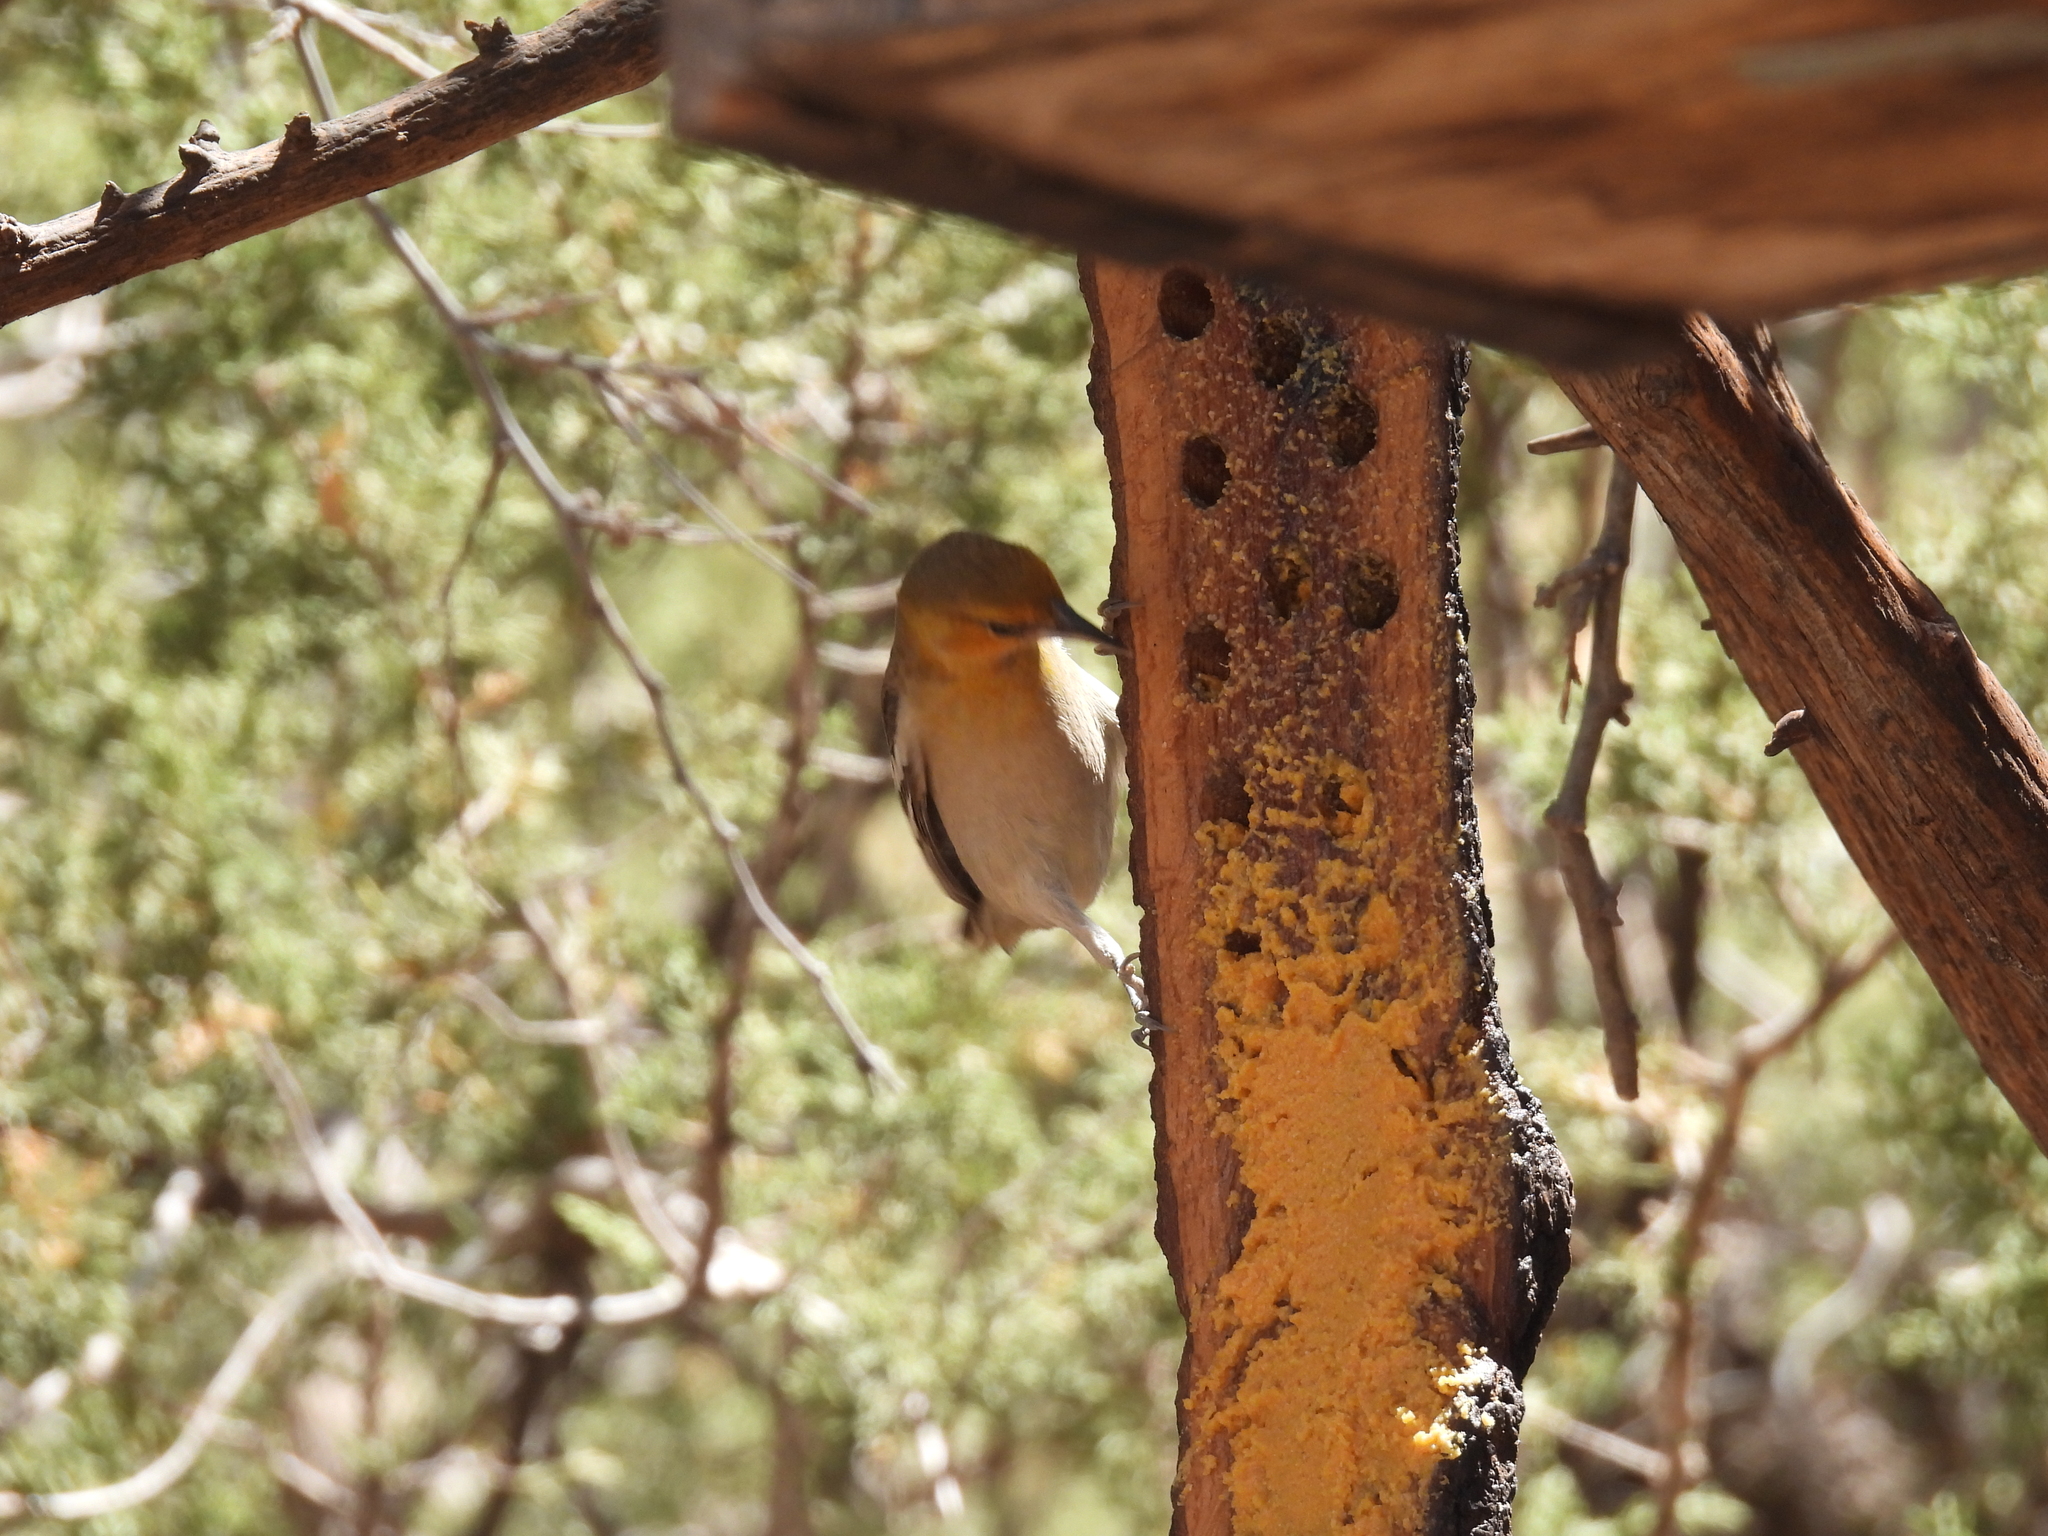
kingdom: Animalia
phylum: Chordata
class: Aves
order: Passeriformes
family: Icteridae
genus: Icterus
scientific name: Icterus bullockii
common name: Bullock's oriole
